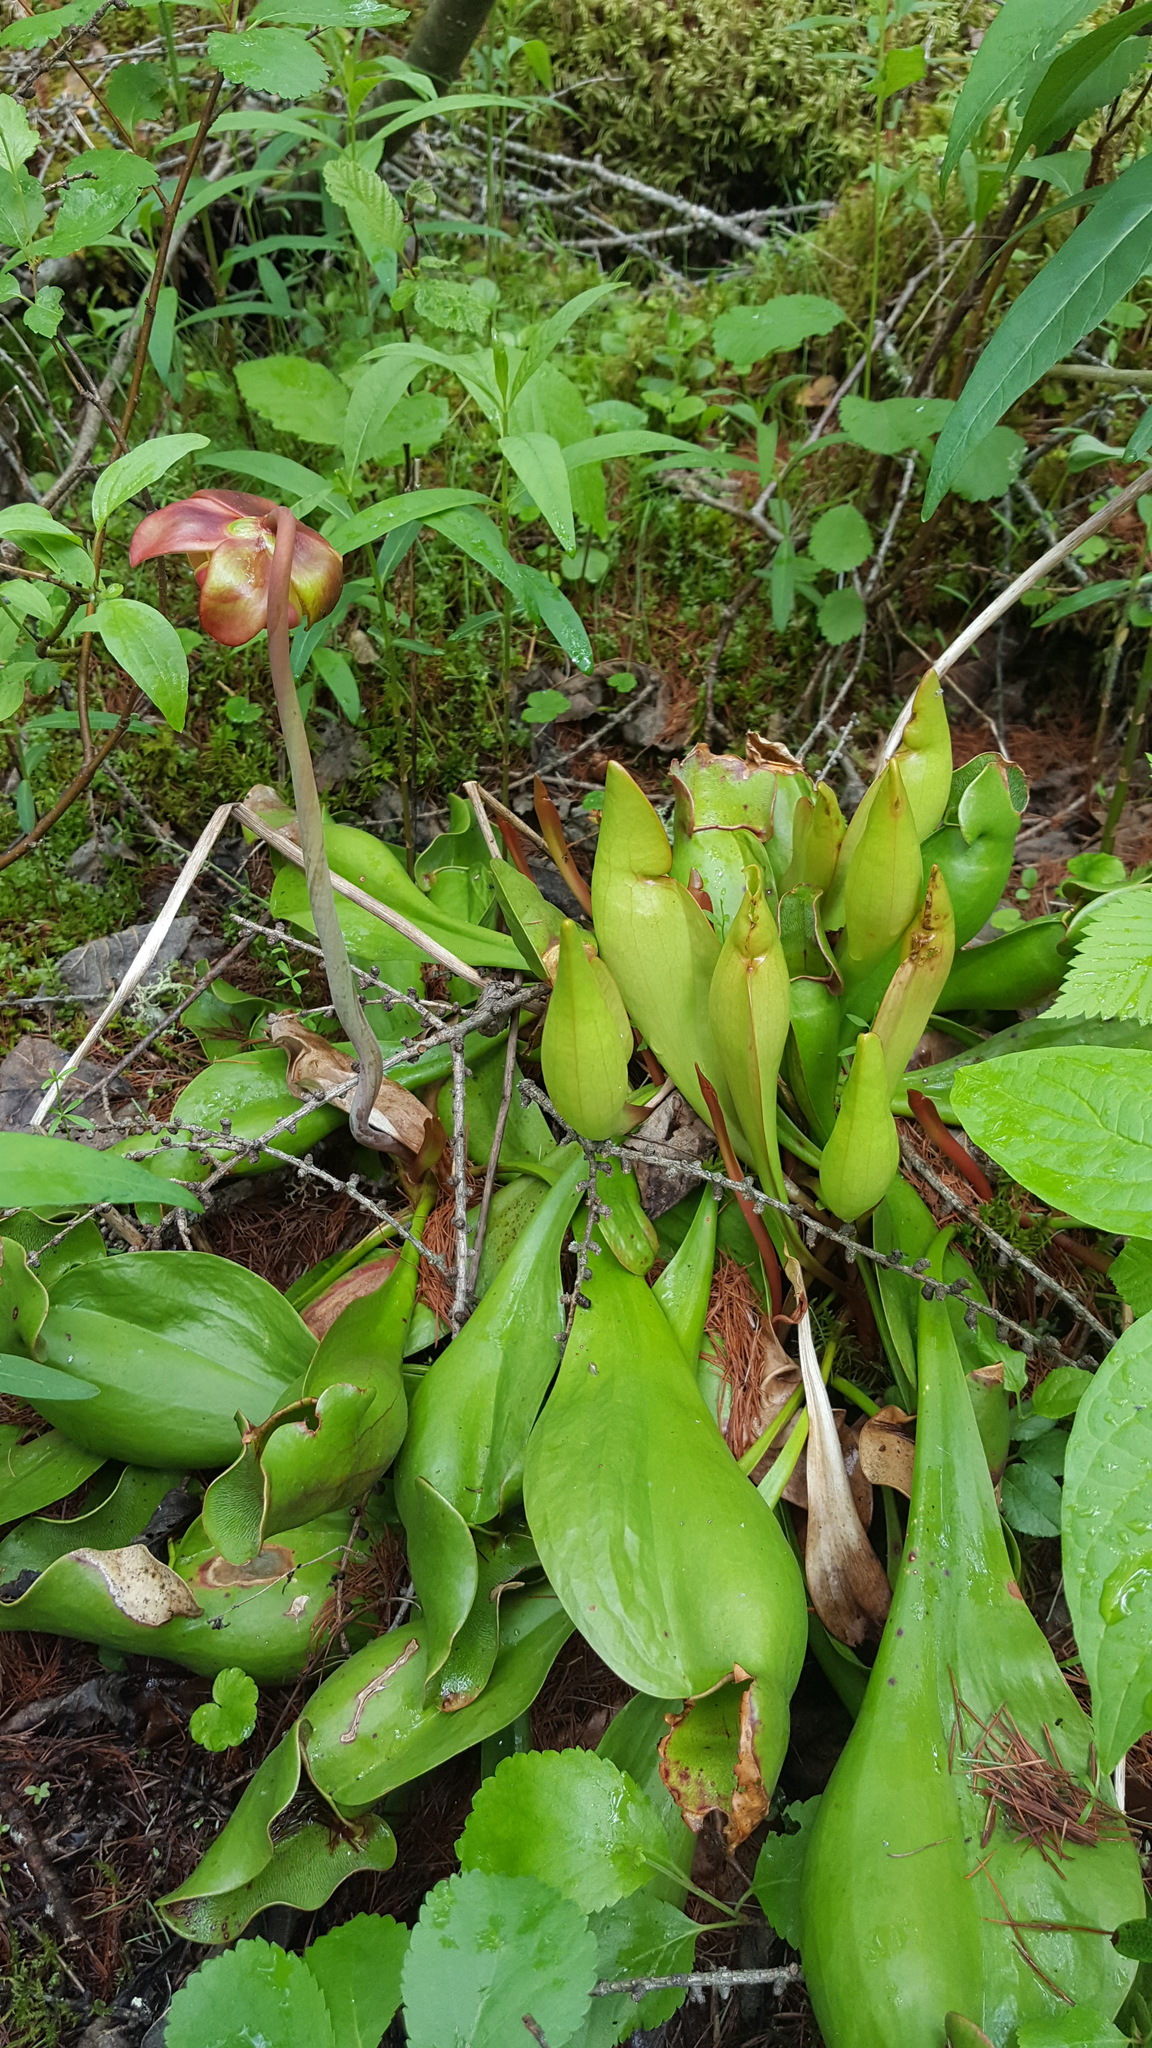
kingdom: Plantae
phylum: Tracheophyta
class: Magnoliopsida
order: Ericales
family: Sarraceniaceae
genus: Sarracenia
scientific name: Sarracenia purpurea
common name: Pitcherplant
